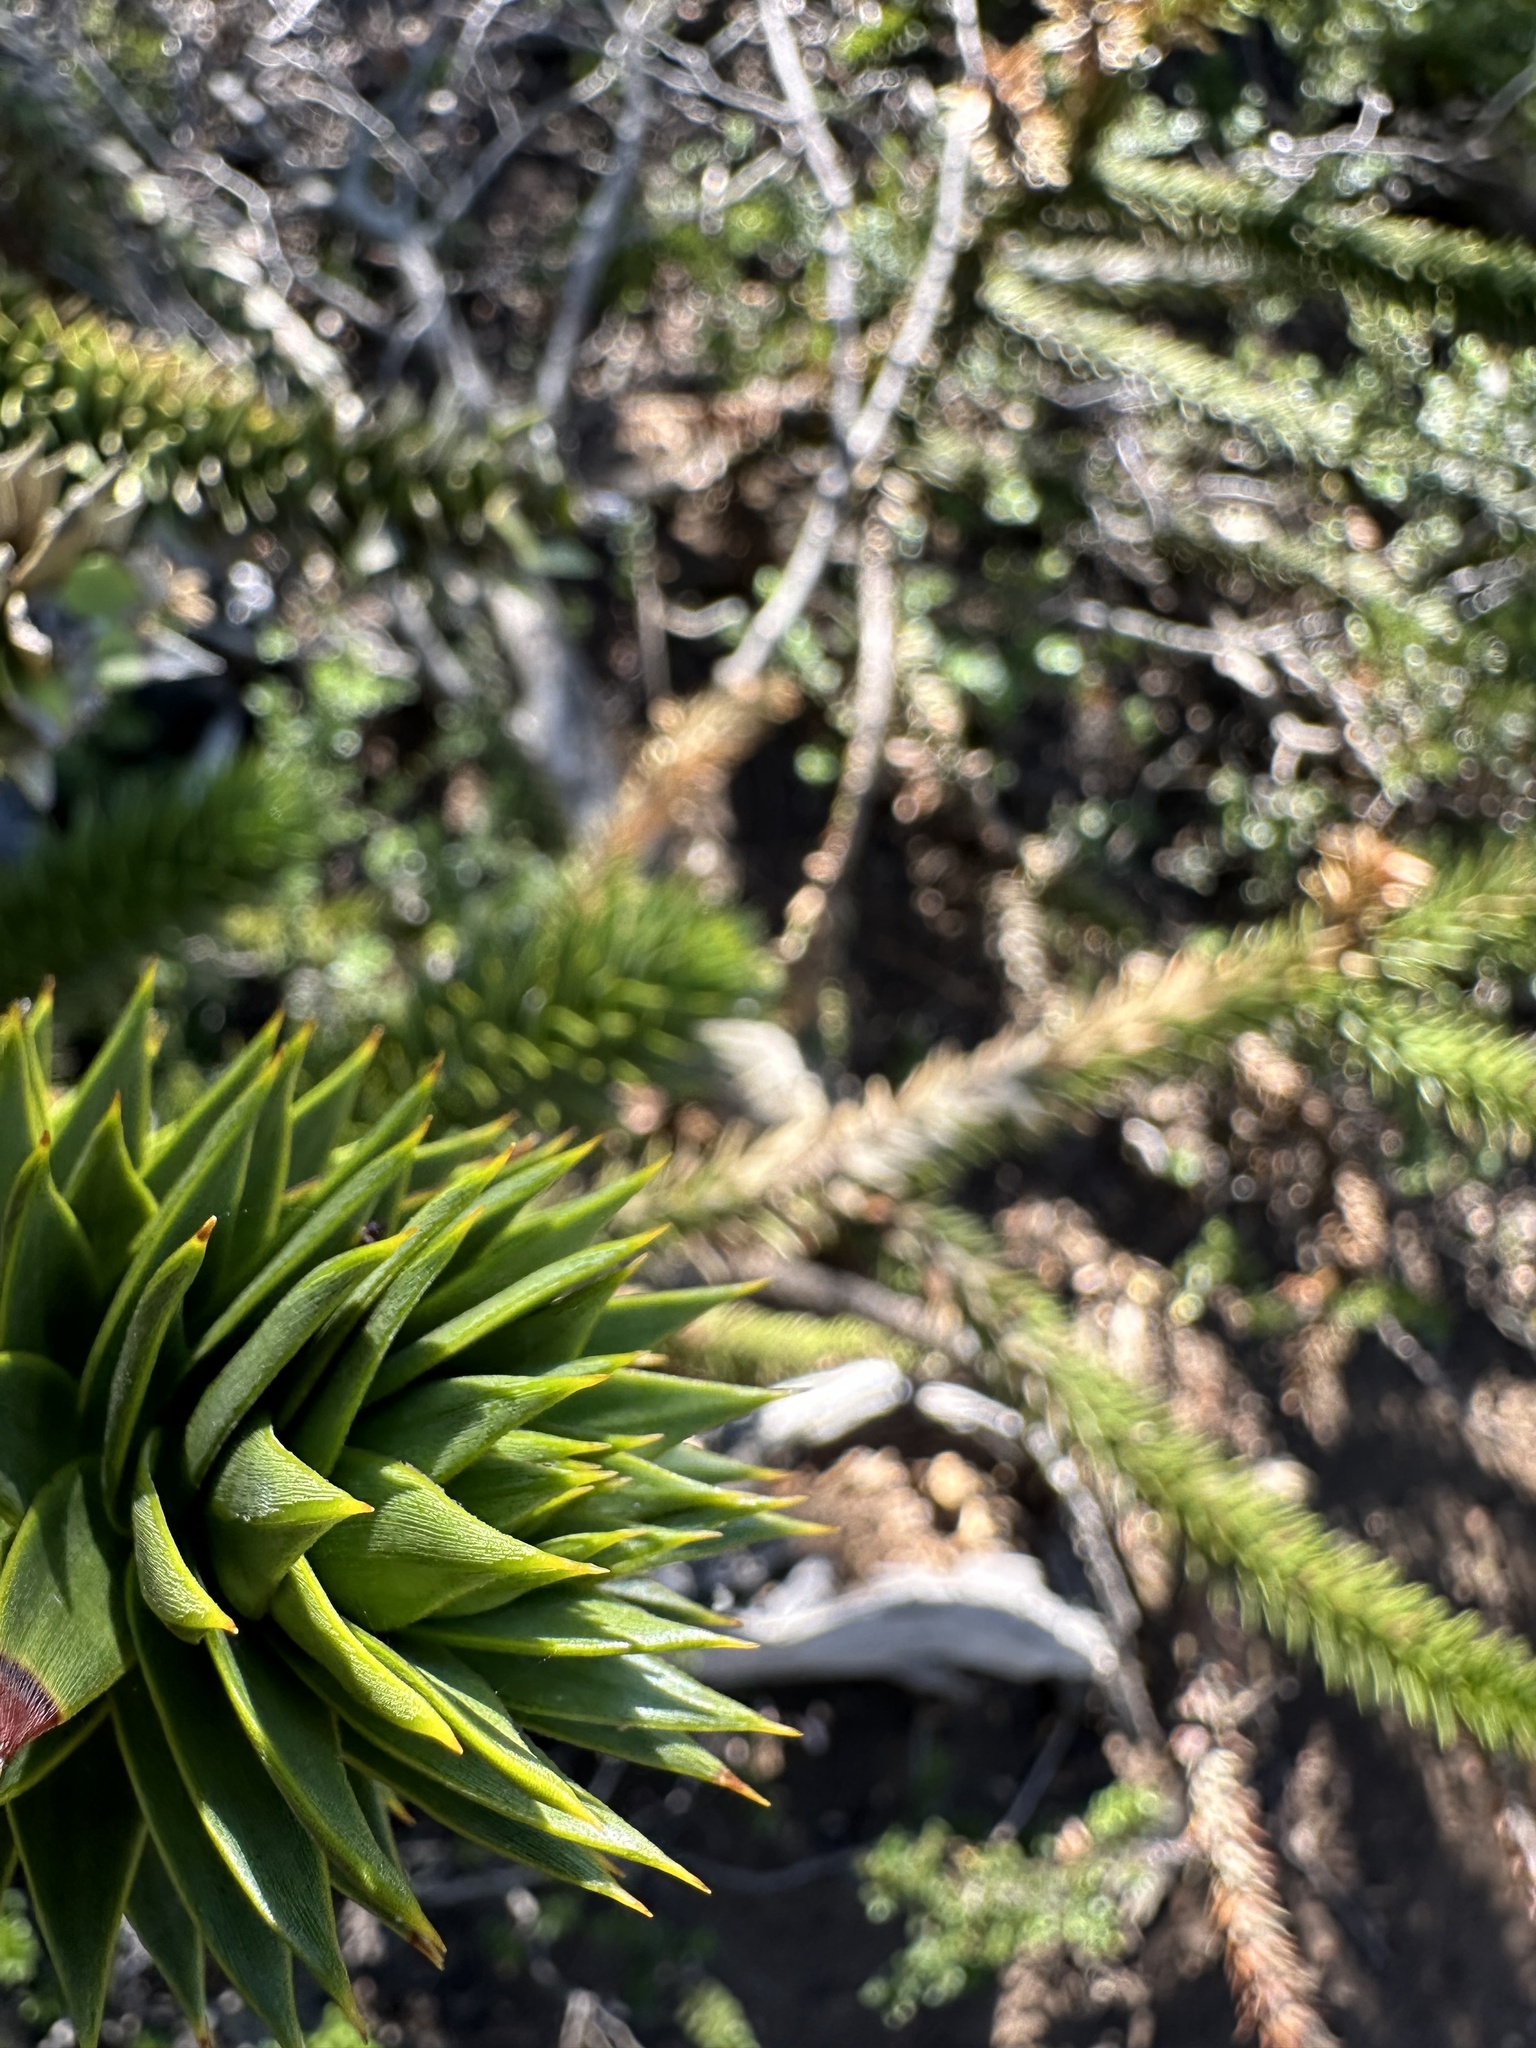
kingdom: Plantae
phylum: Tracheophyta
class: Pinopsida
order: Pinales
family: Araucariaceae
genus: Araucaria
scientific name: Araucaria araucana
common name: Monkey-puzzle
